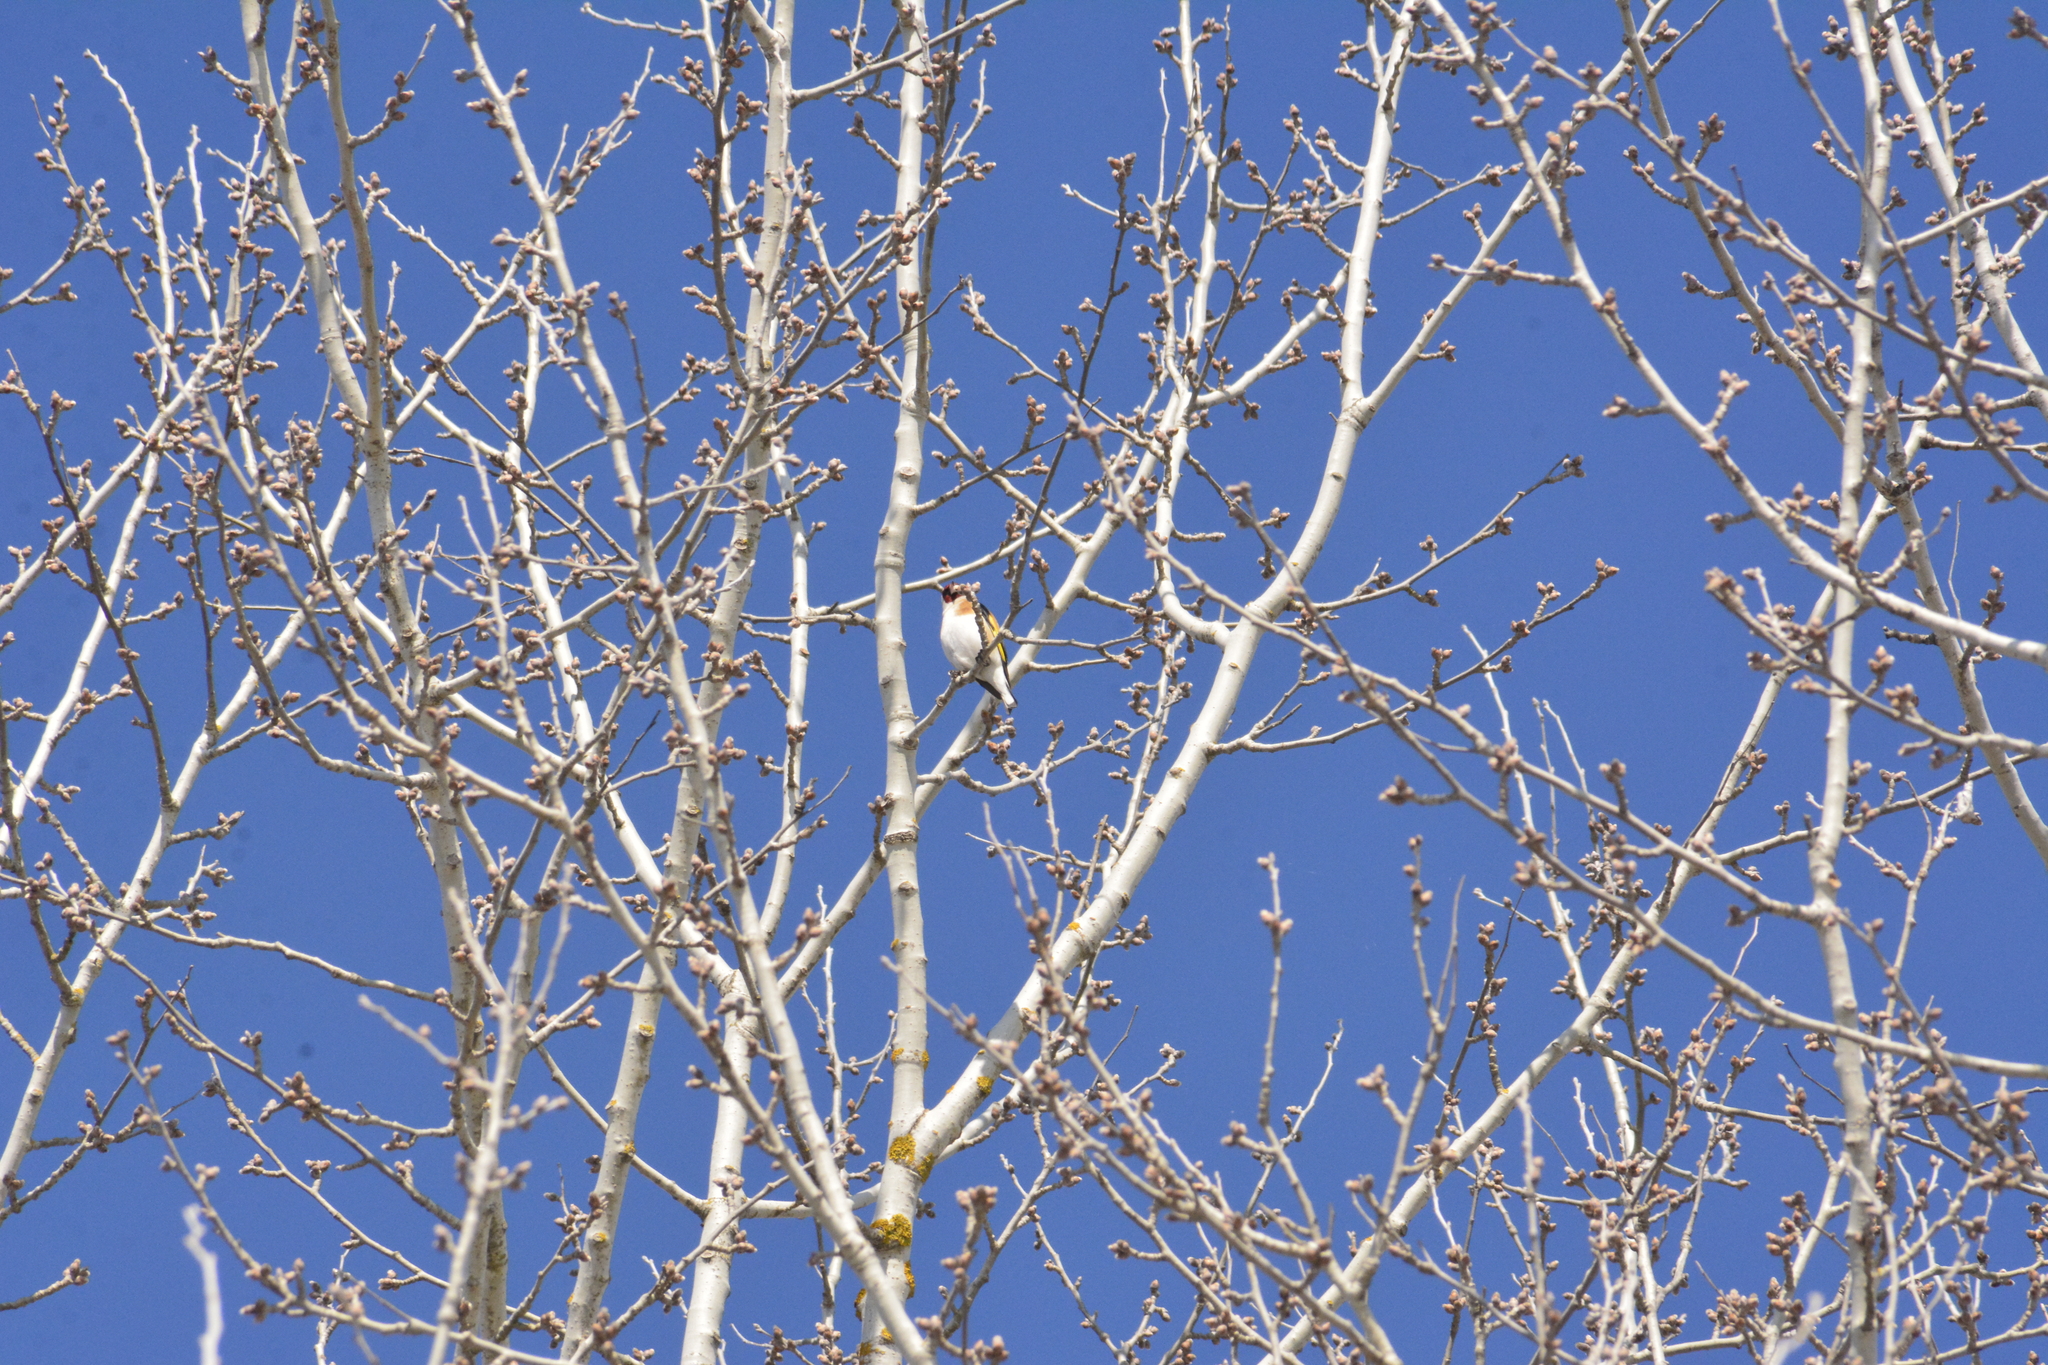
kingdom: Animalia
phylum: Chordata
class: Aves
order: Passeriformes
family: Fringillidae
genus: Carduelis
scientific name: Carduelis carduelis
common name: European goldfinch
